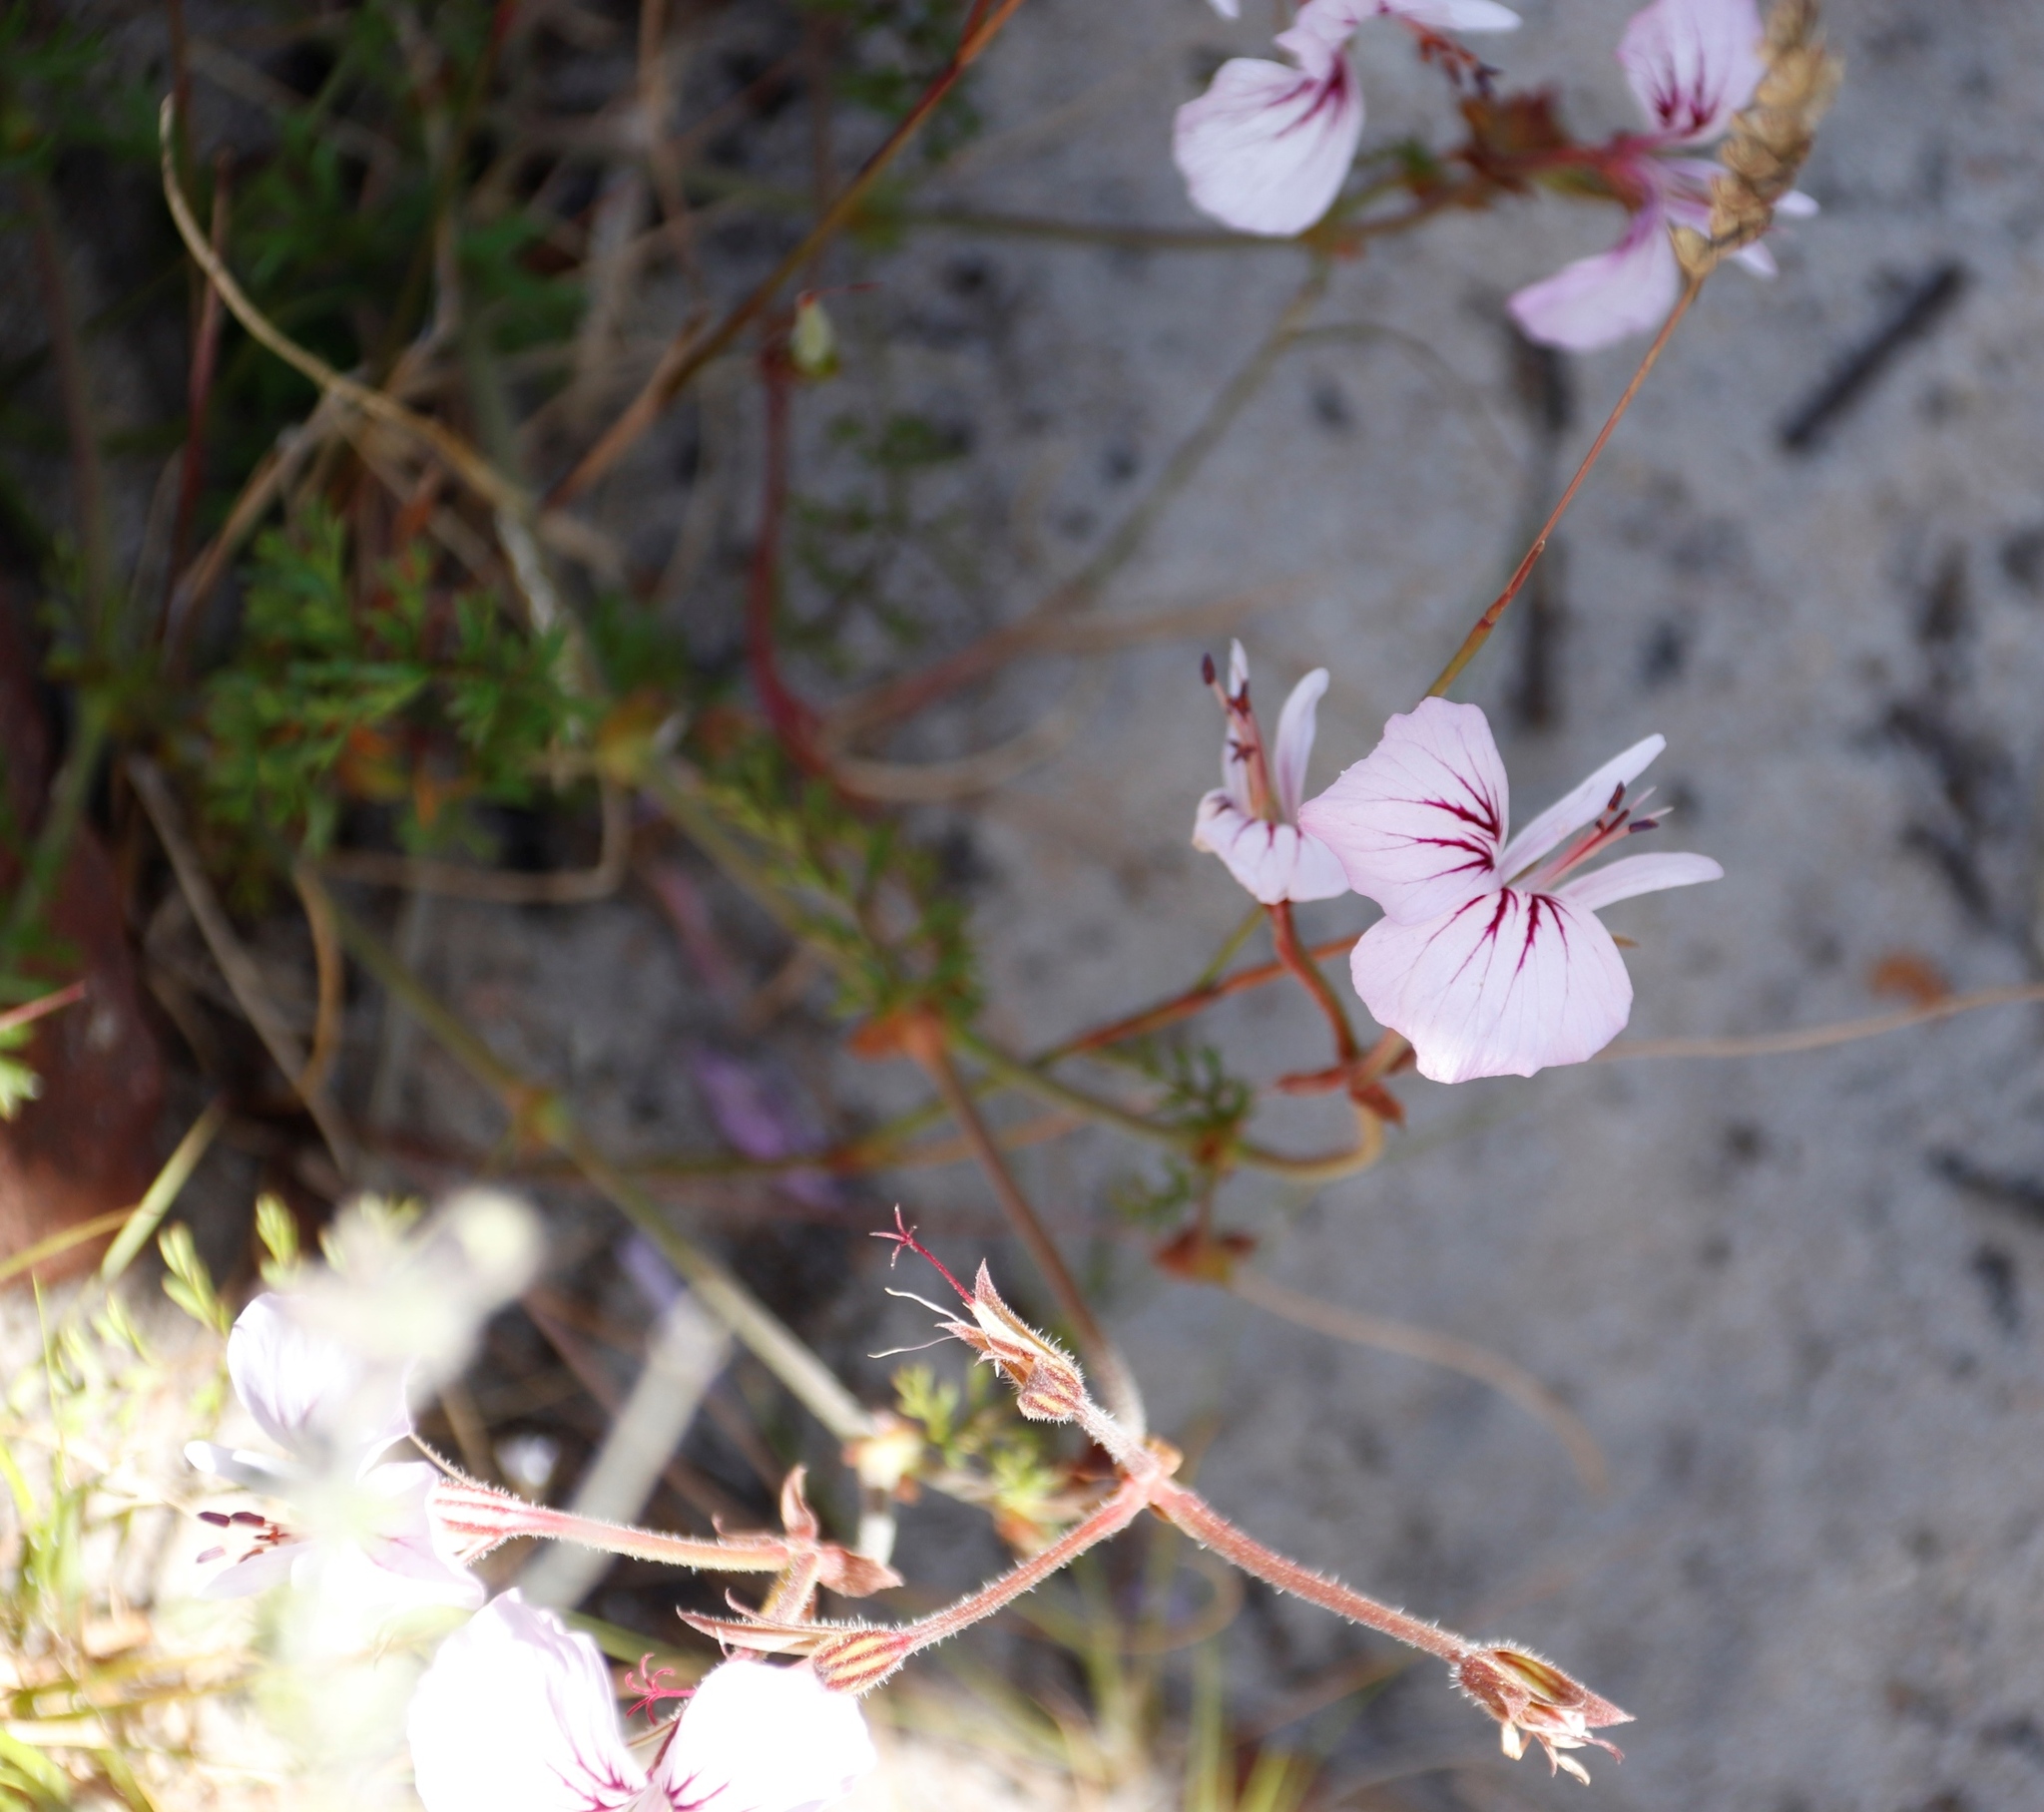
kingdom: Plantae
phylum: Tracheophyta
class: Magnoliopsida
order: Geraniales
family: Geraniaceae
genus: Pelargonium
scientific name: Pelargonium longicaule
